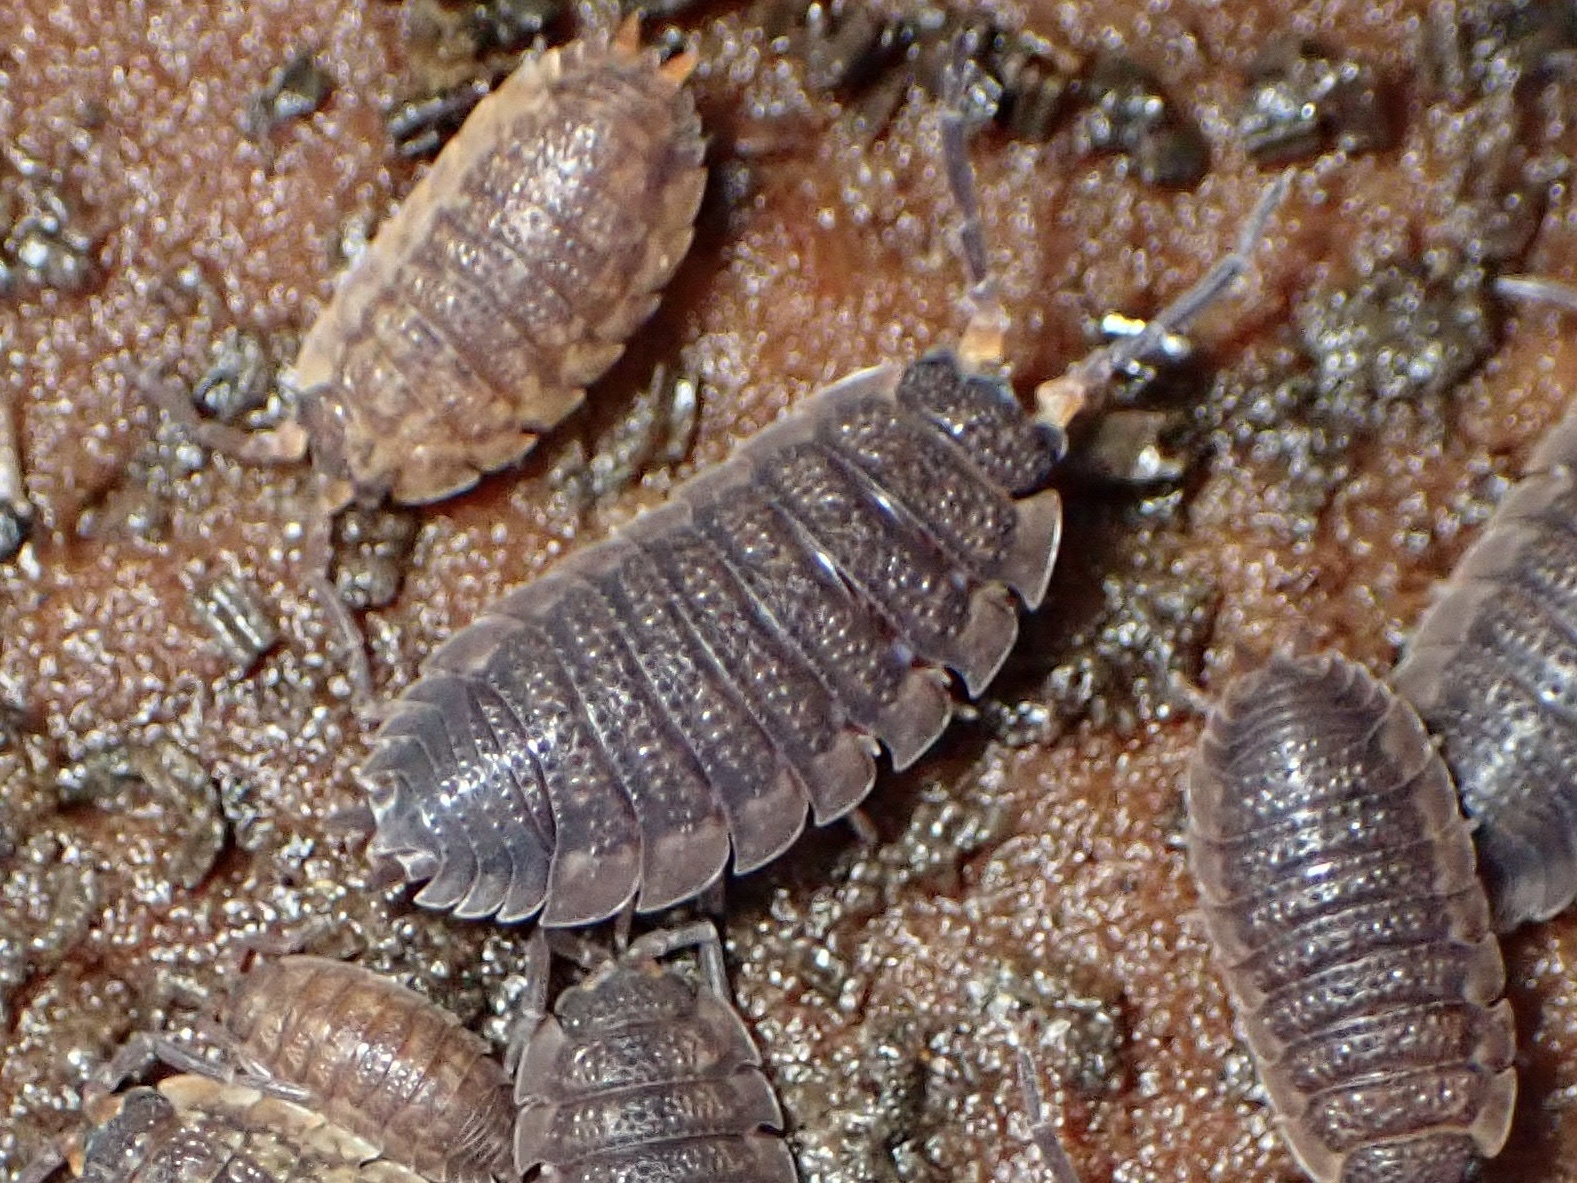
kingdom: Animalia
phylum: Arthropoda
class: Malacostraca
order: Isopoda
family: Porcellionidae
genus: Porcellio
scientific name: Porcellio scaber
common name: Common rough woodlouse
